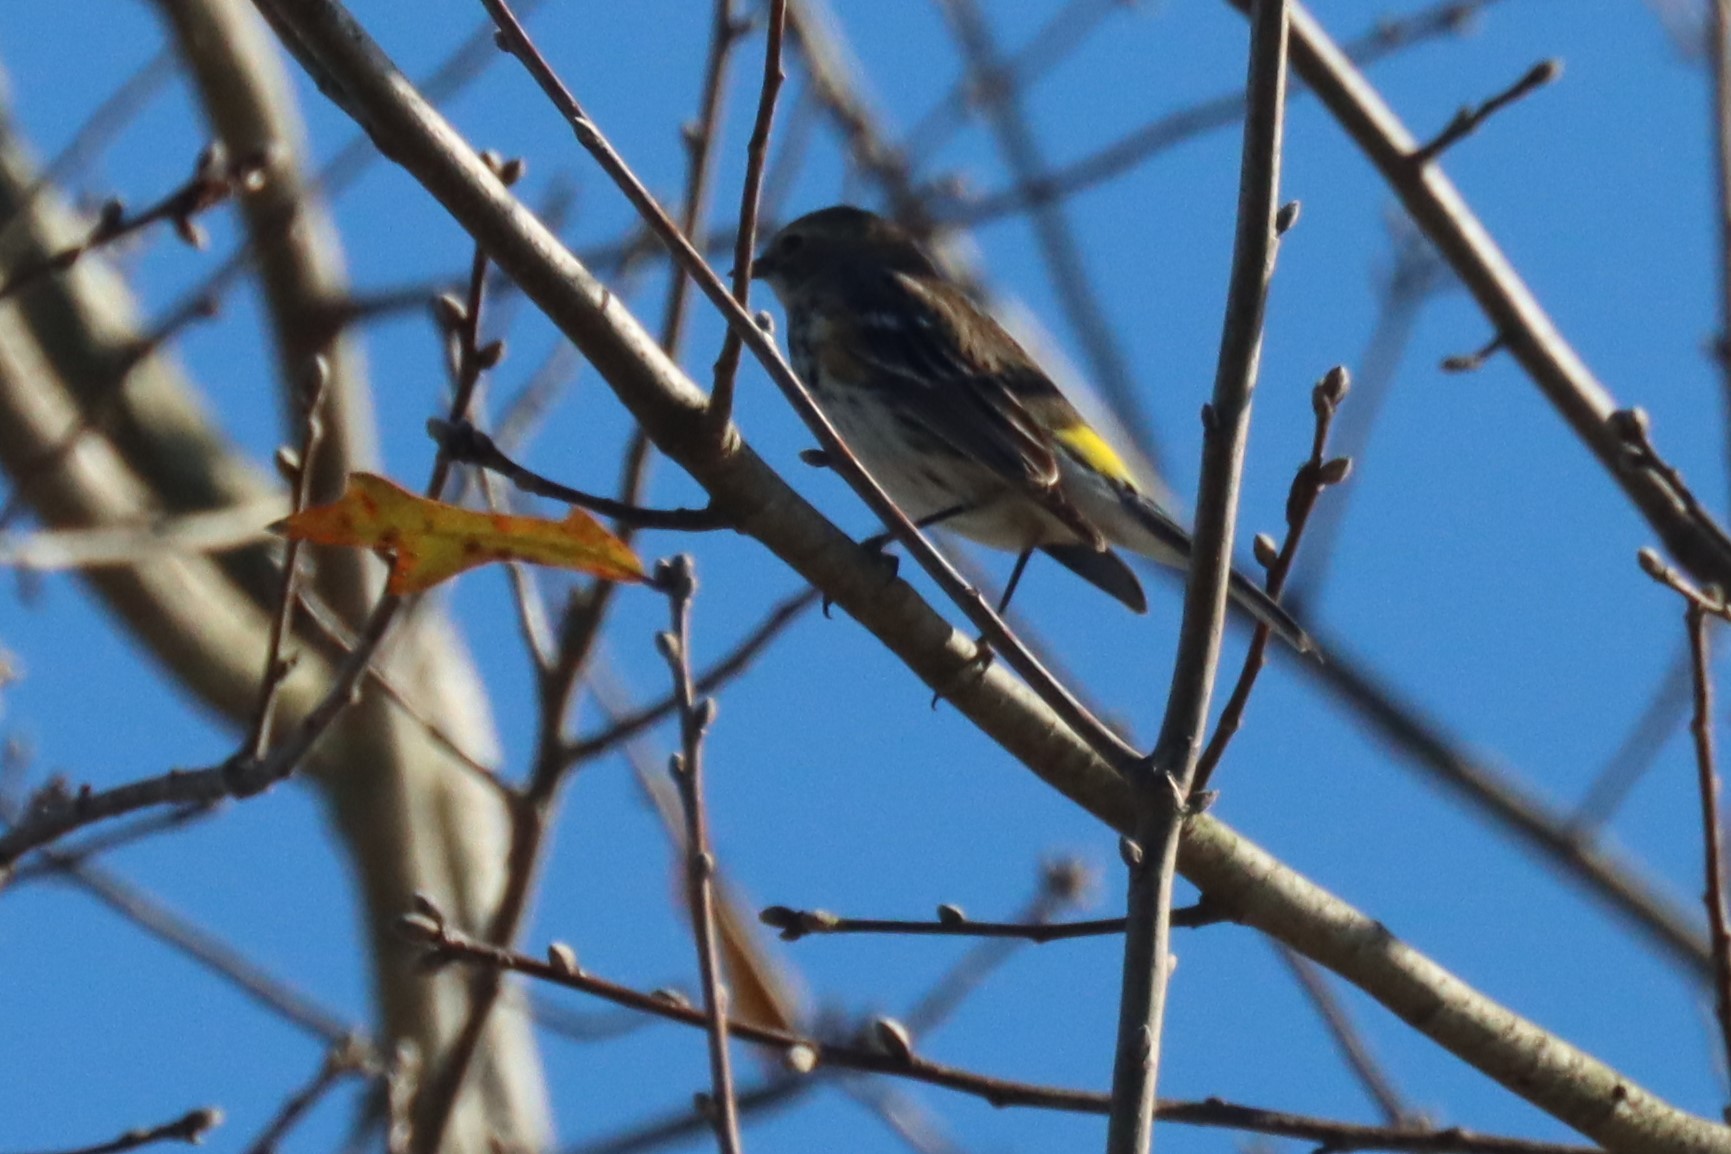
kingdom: Animalia
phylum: Chordata
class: Aves
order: Passeriformes
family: Parulidae
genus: Setophaga
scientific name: Setophaga coronata
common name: Myrtle warbler
